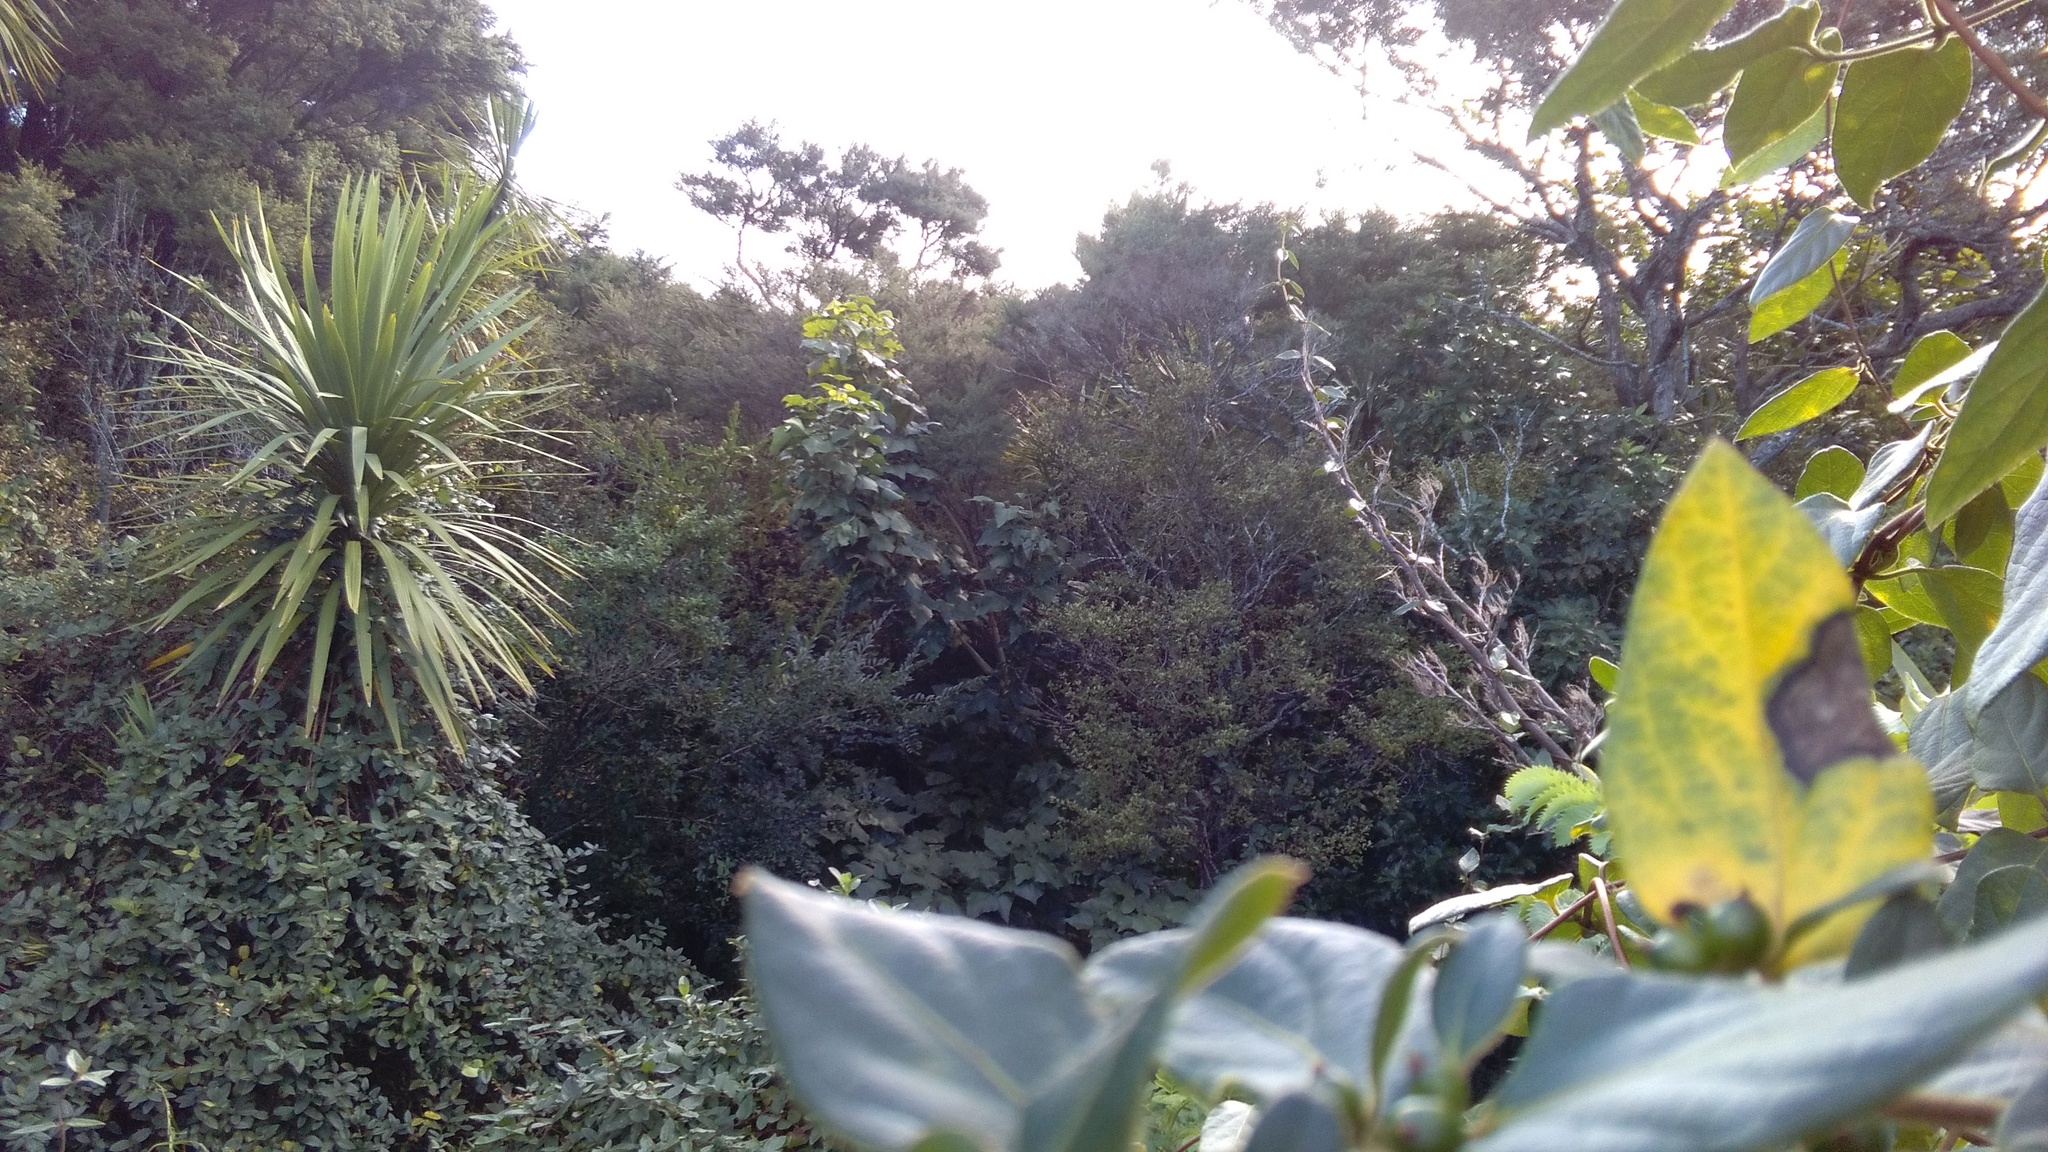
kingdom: Plantae
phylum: Tracheophyta
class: Magnoliopsida
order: Dipsacales
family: Caprifoliaceae
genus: Lonicera
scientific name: Lonicera japonica
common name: Japanese honeysuckle
